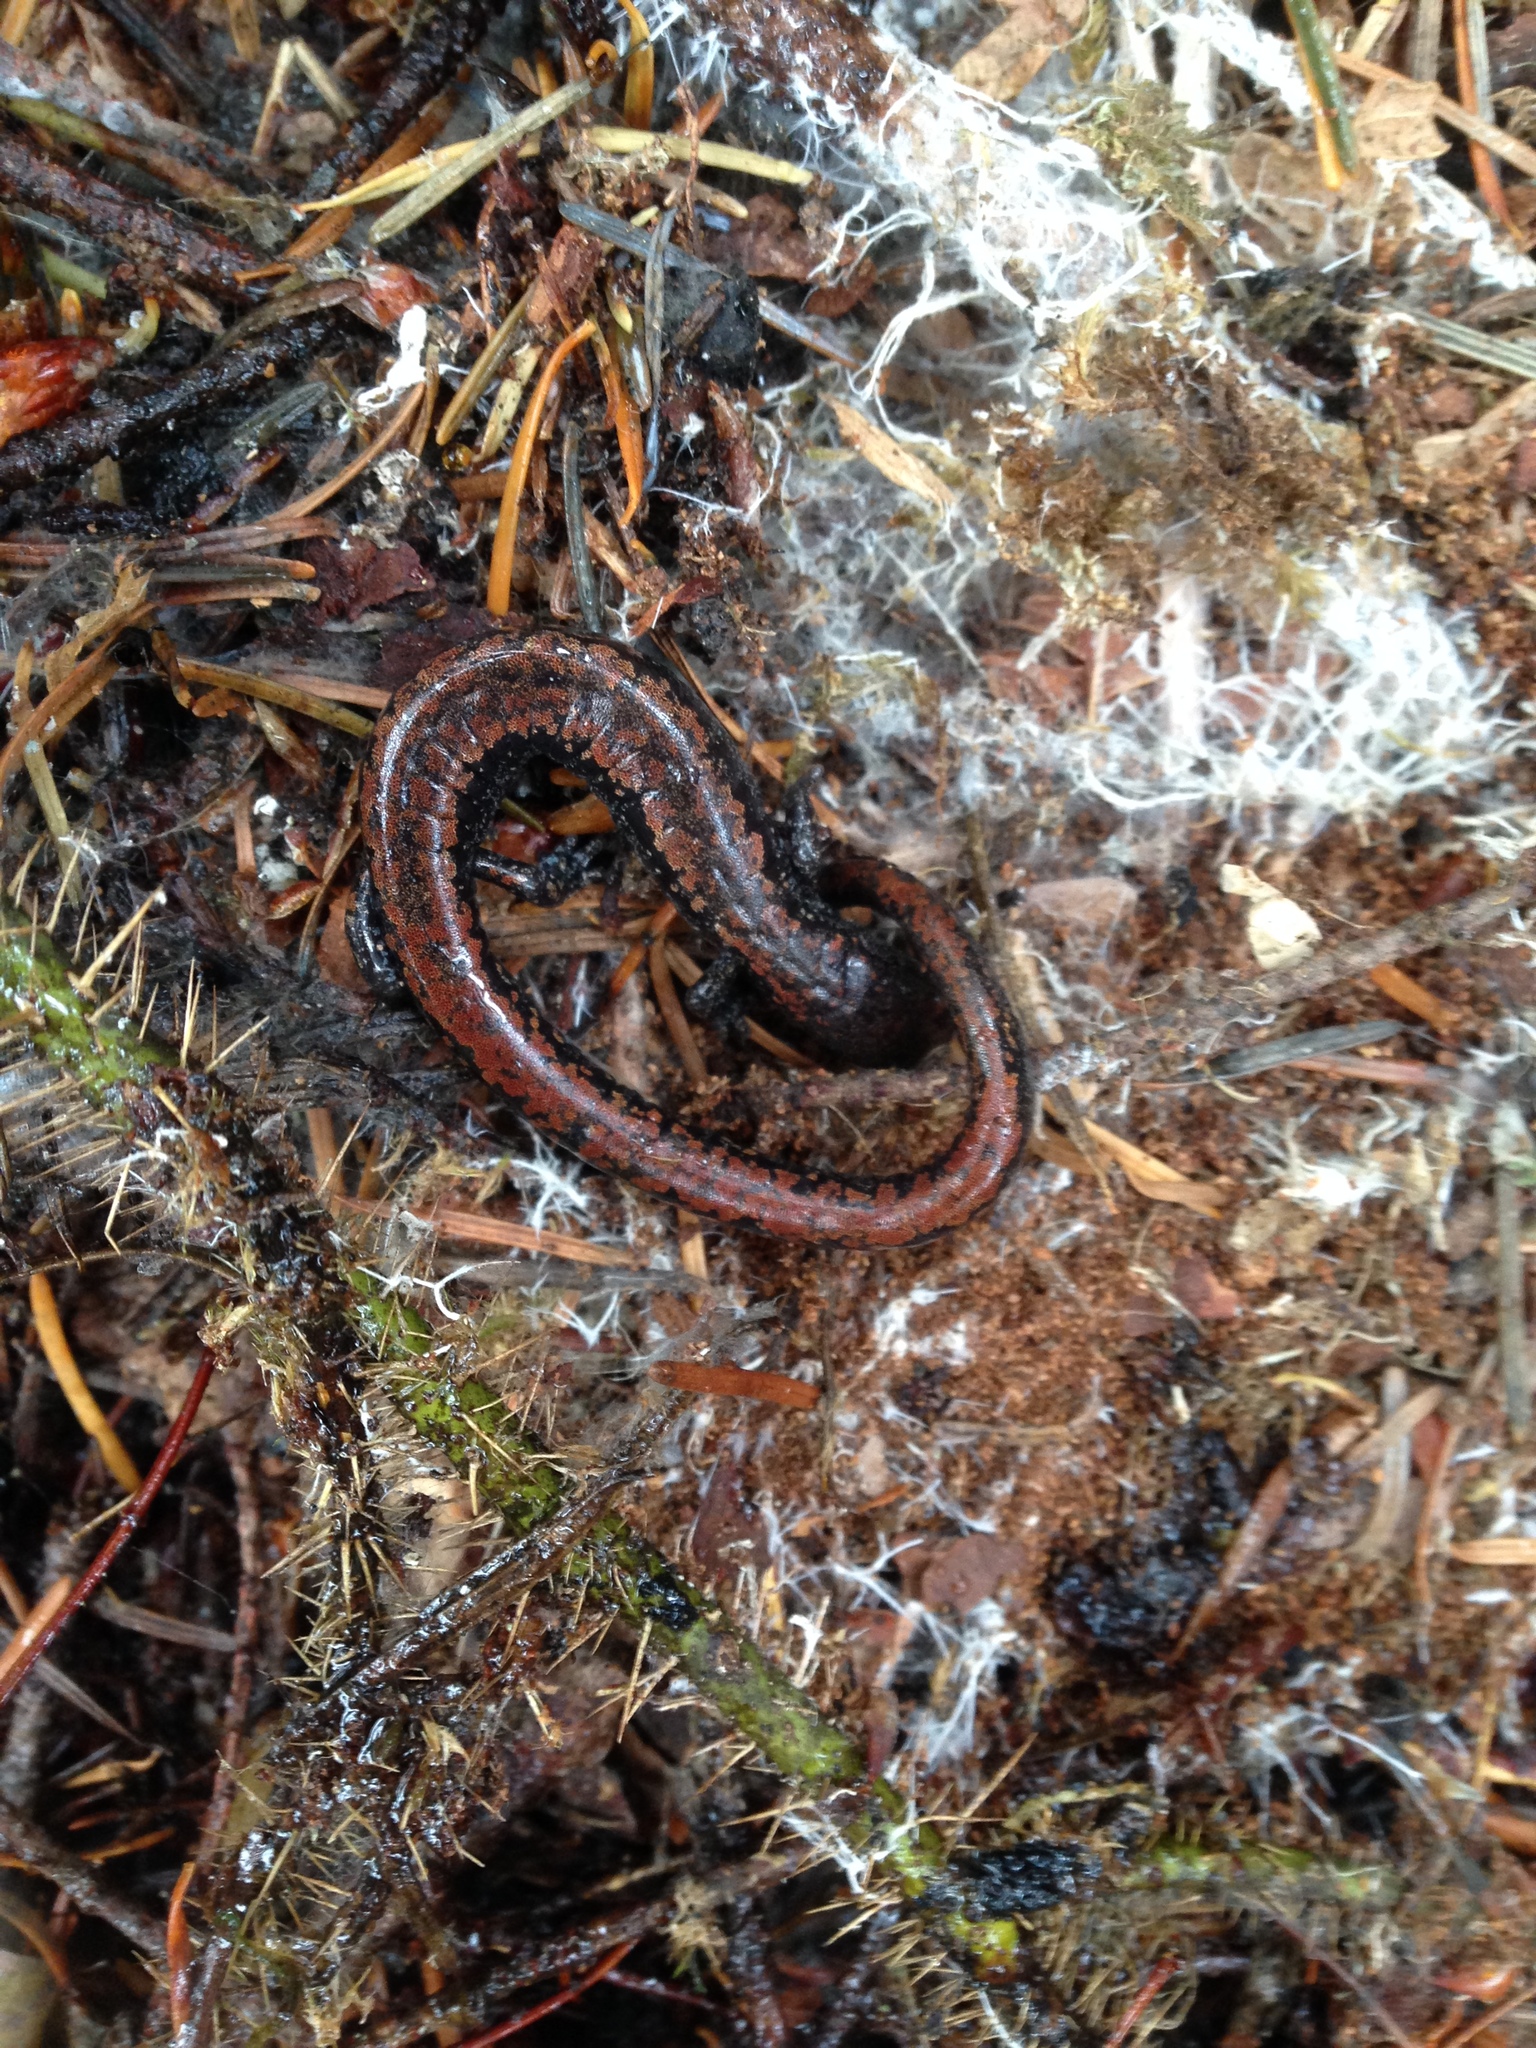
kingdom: Animalia
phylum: Chordata
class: Amphibia
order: Caudata
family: Plethodontidae
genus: Batrachoseps
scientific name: Batrachoseps wrighti
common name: Oregon slender salamander
